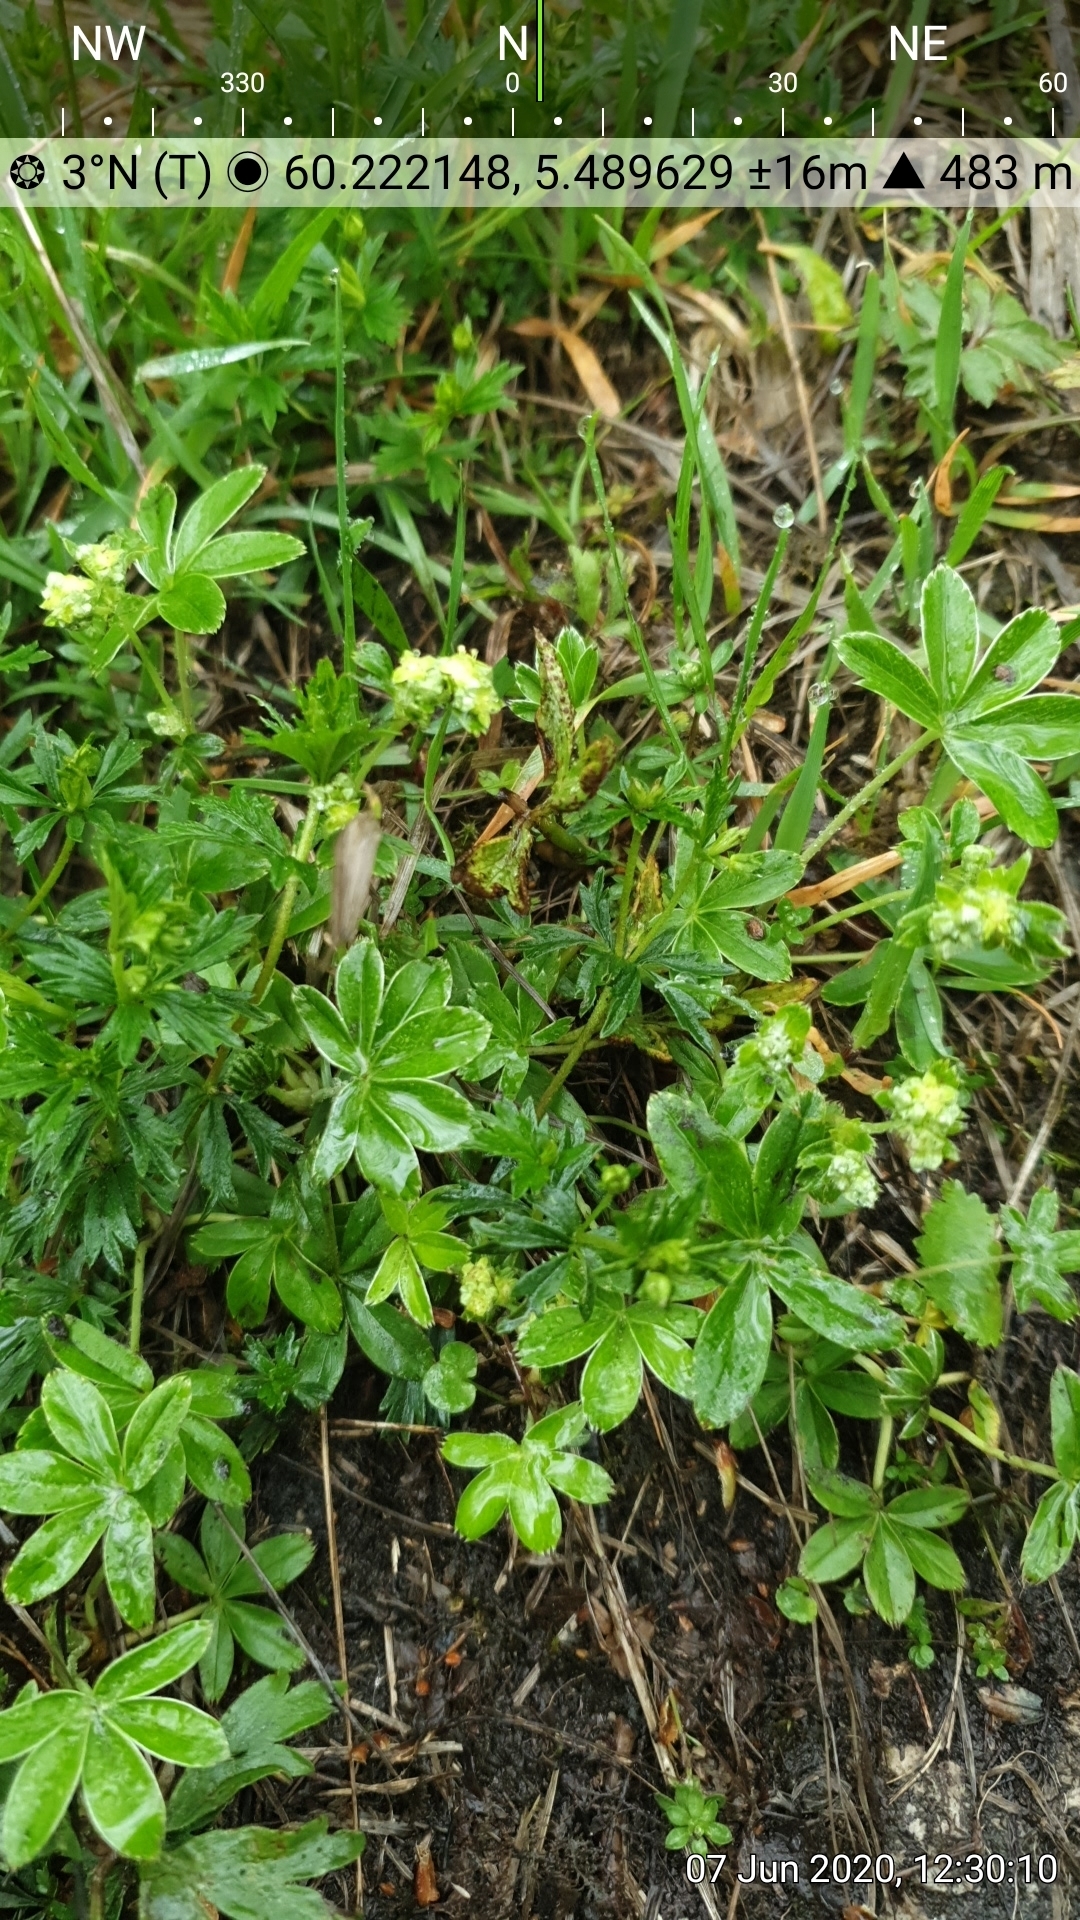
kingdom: Plantae
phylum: Tracheophyta
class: Magnoliopsida
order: Rosales
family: Rosaceae
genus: Alchemilla
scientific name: Alchemilla alpina
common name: Alpine lady's-mantle
